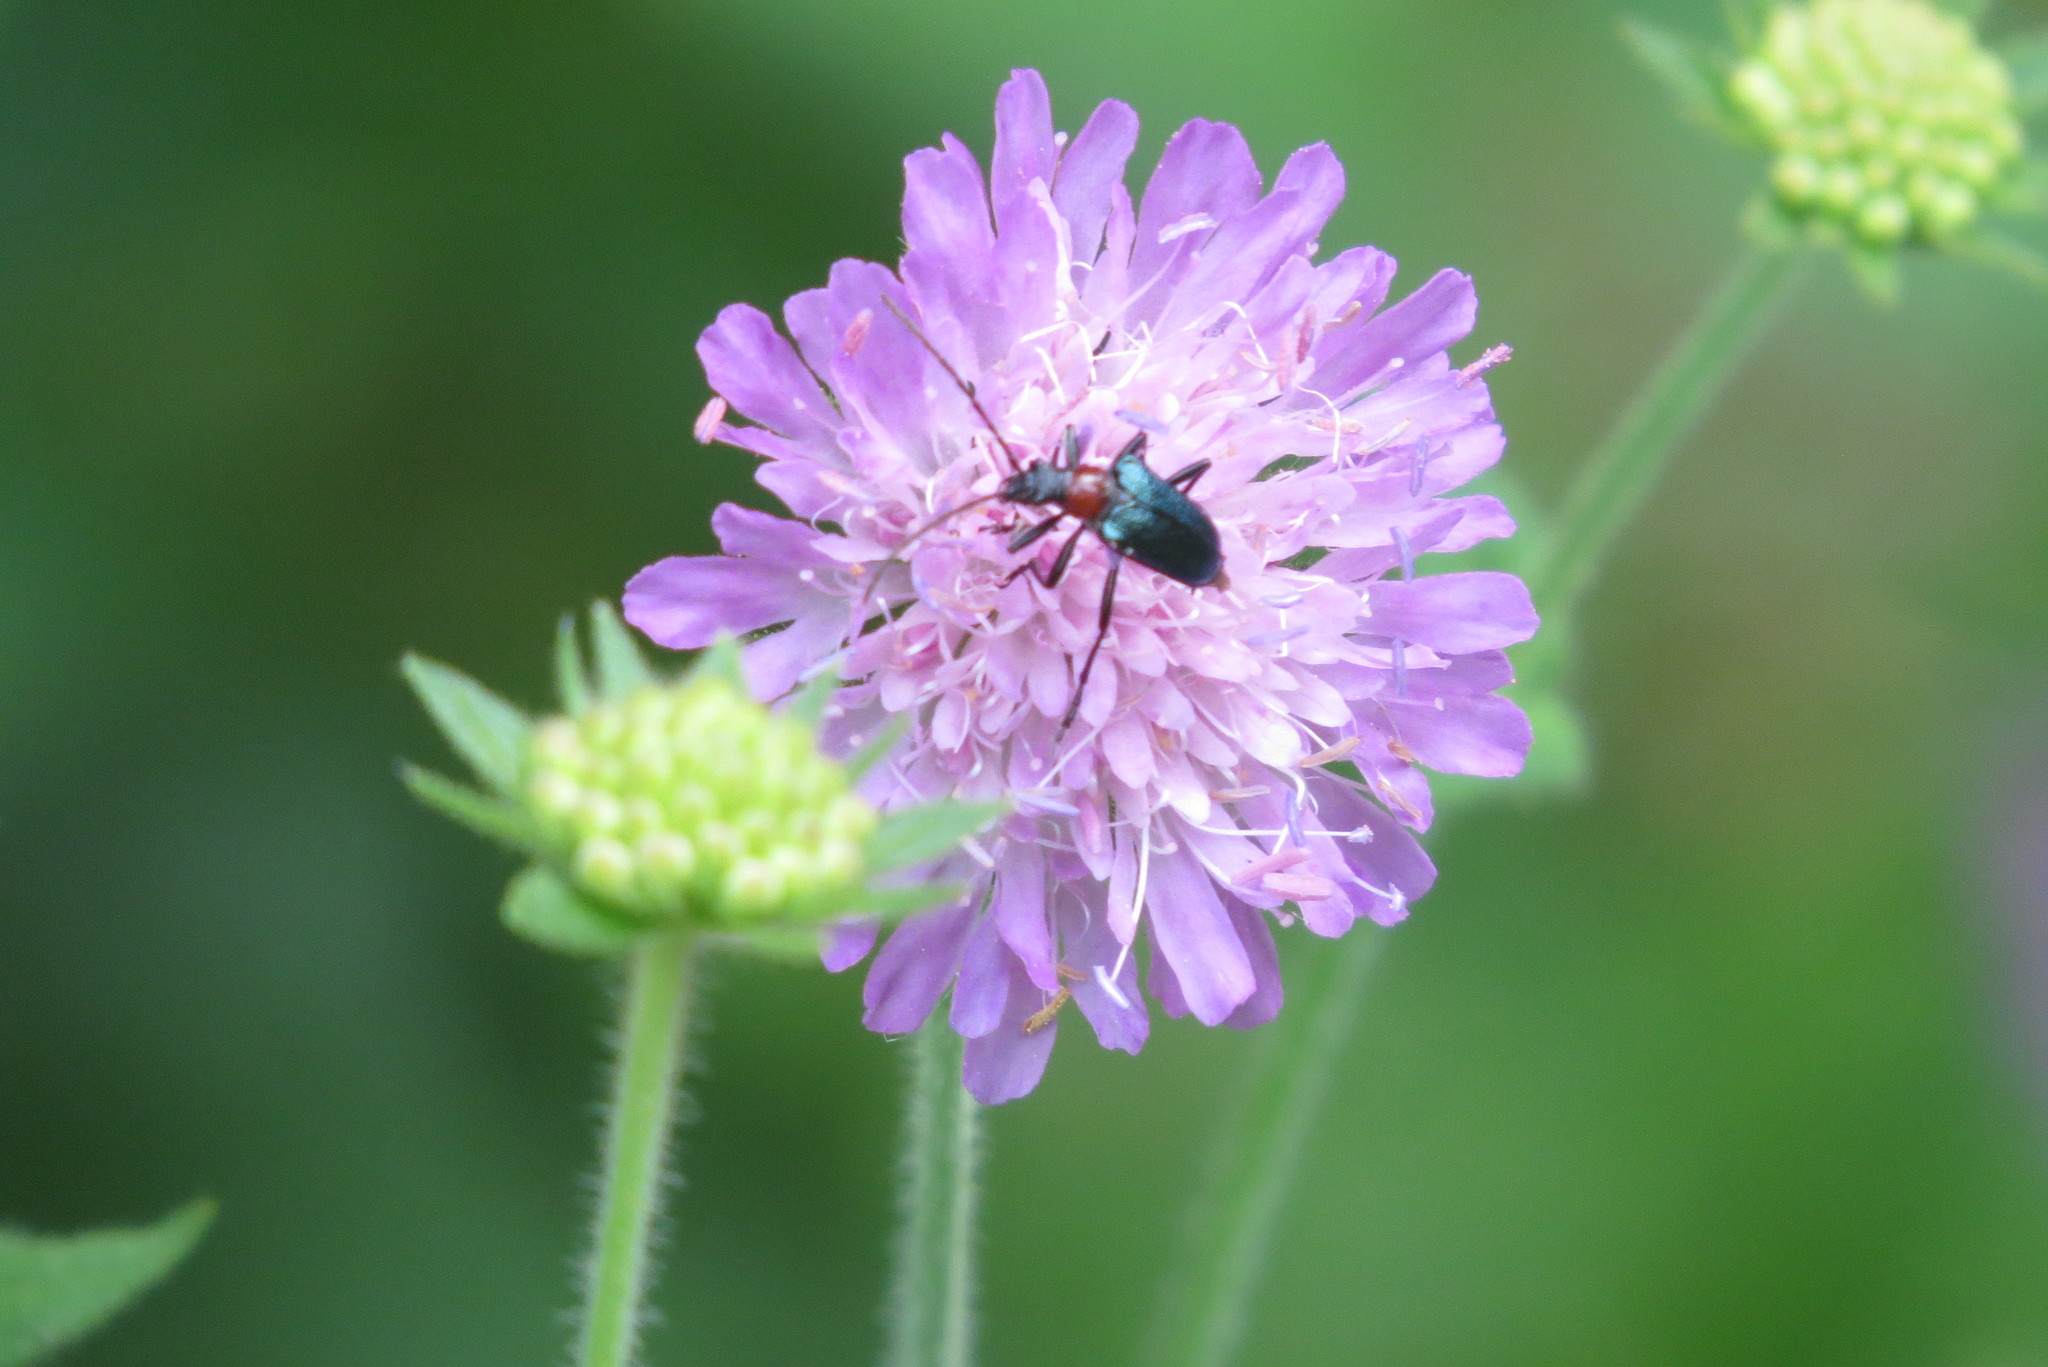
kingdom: Animalia
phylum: Arthropoda
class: Insecta
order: Coleoptera
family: Cerambycidae
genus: Gaurotes
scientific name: Gaurotes virginea
